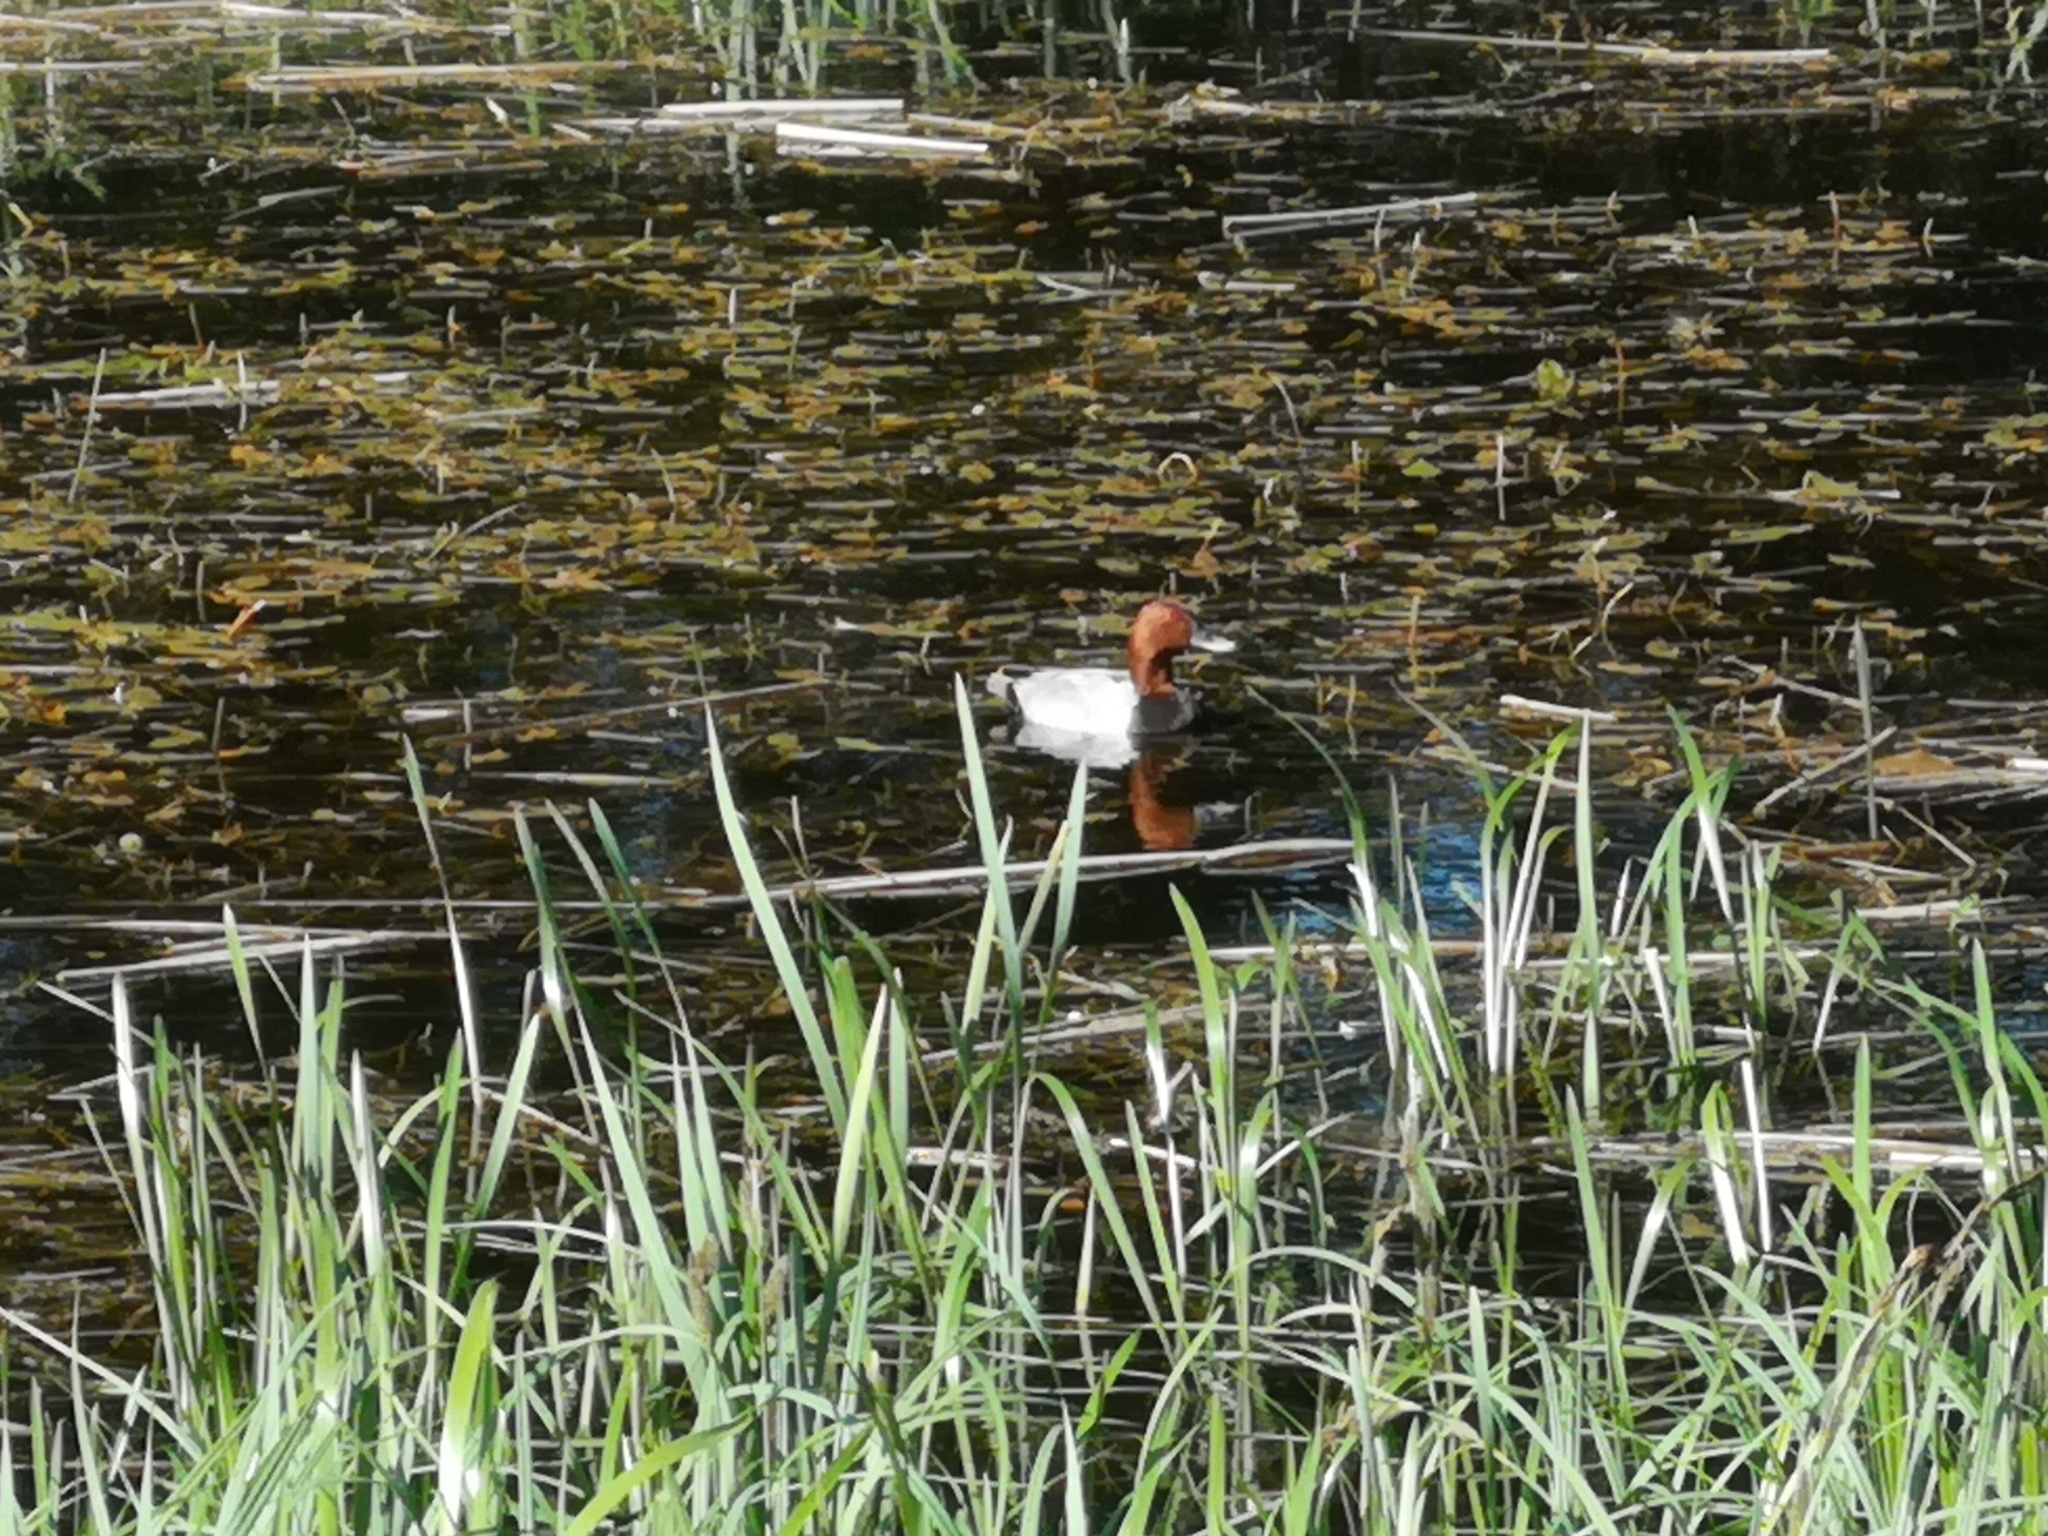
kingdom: Animalia
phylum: Chordata
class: Aves
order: Anseriformes
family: Anatidae
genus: Aythya
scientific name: Aythya ferina
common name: Common pochard
